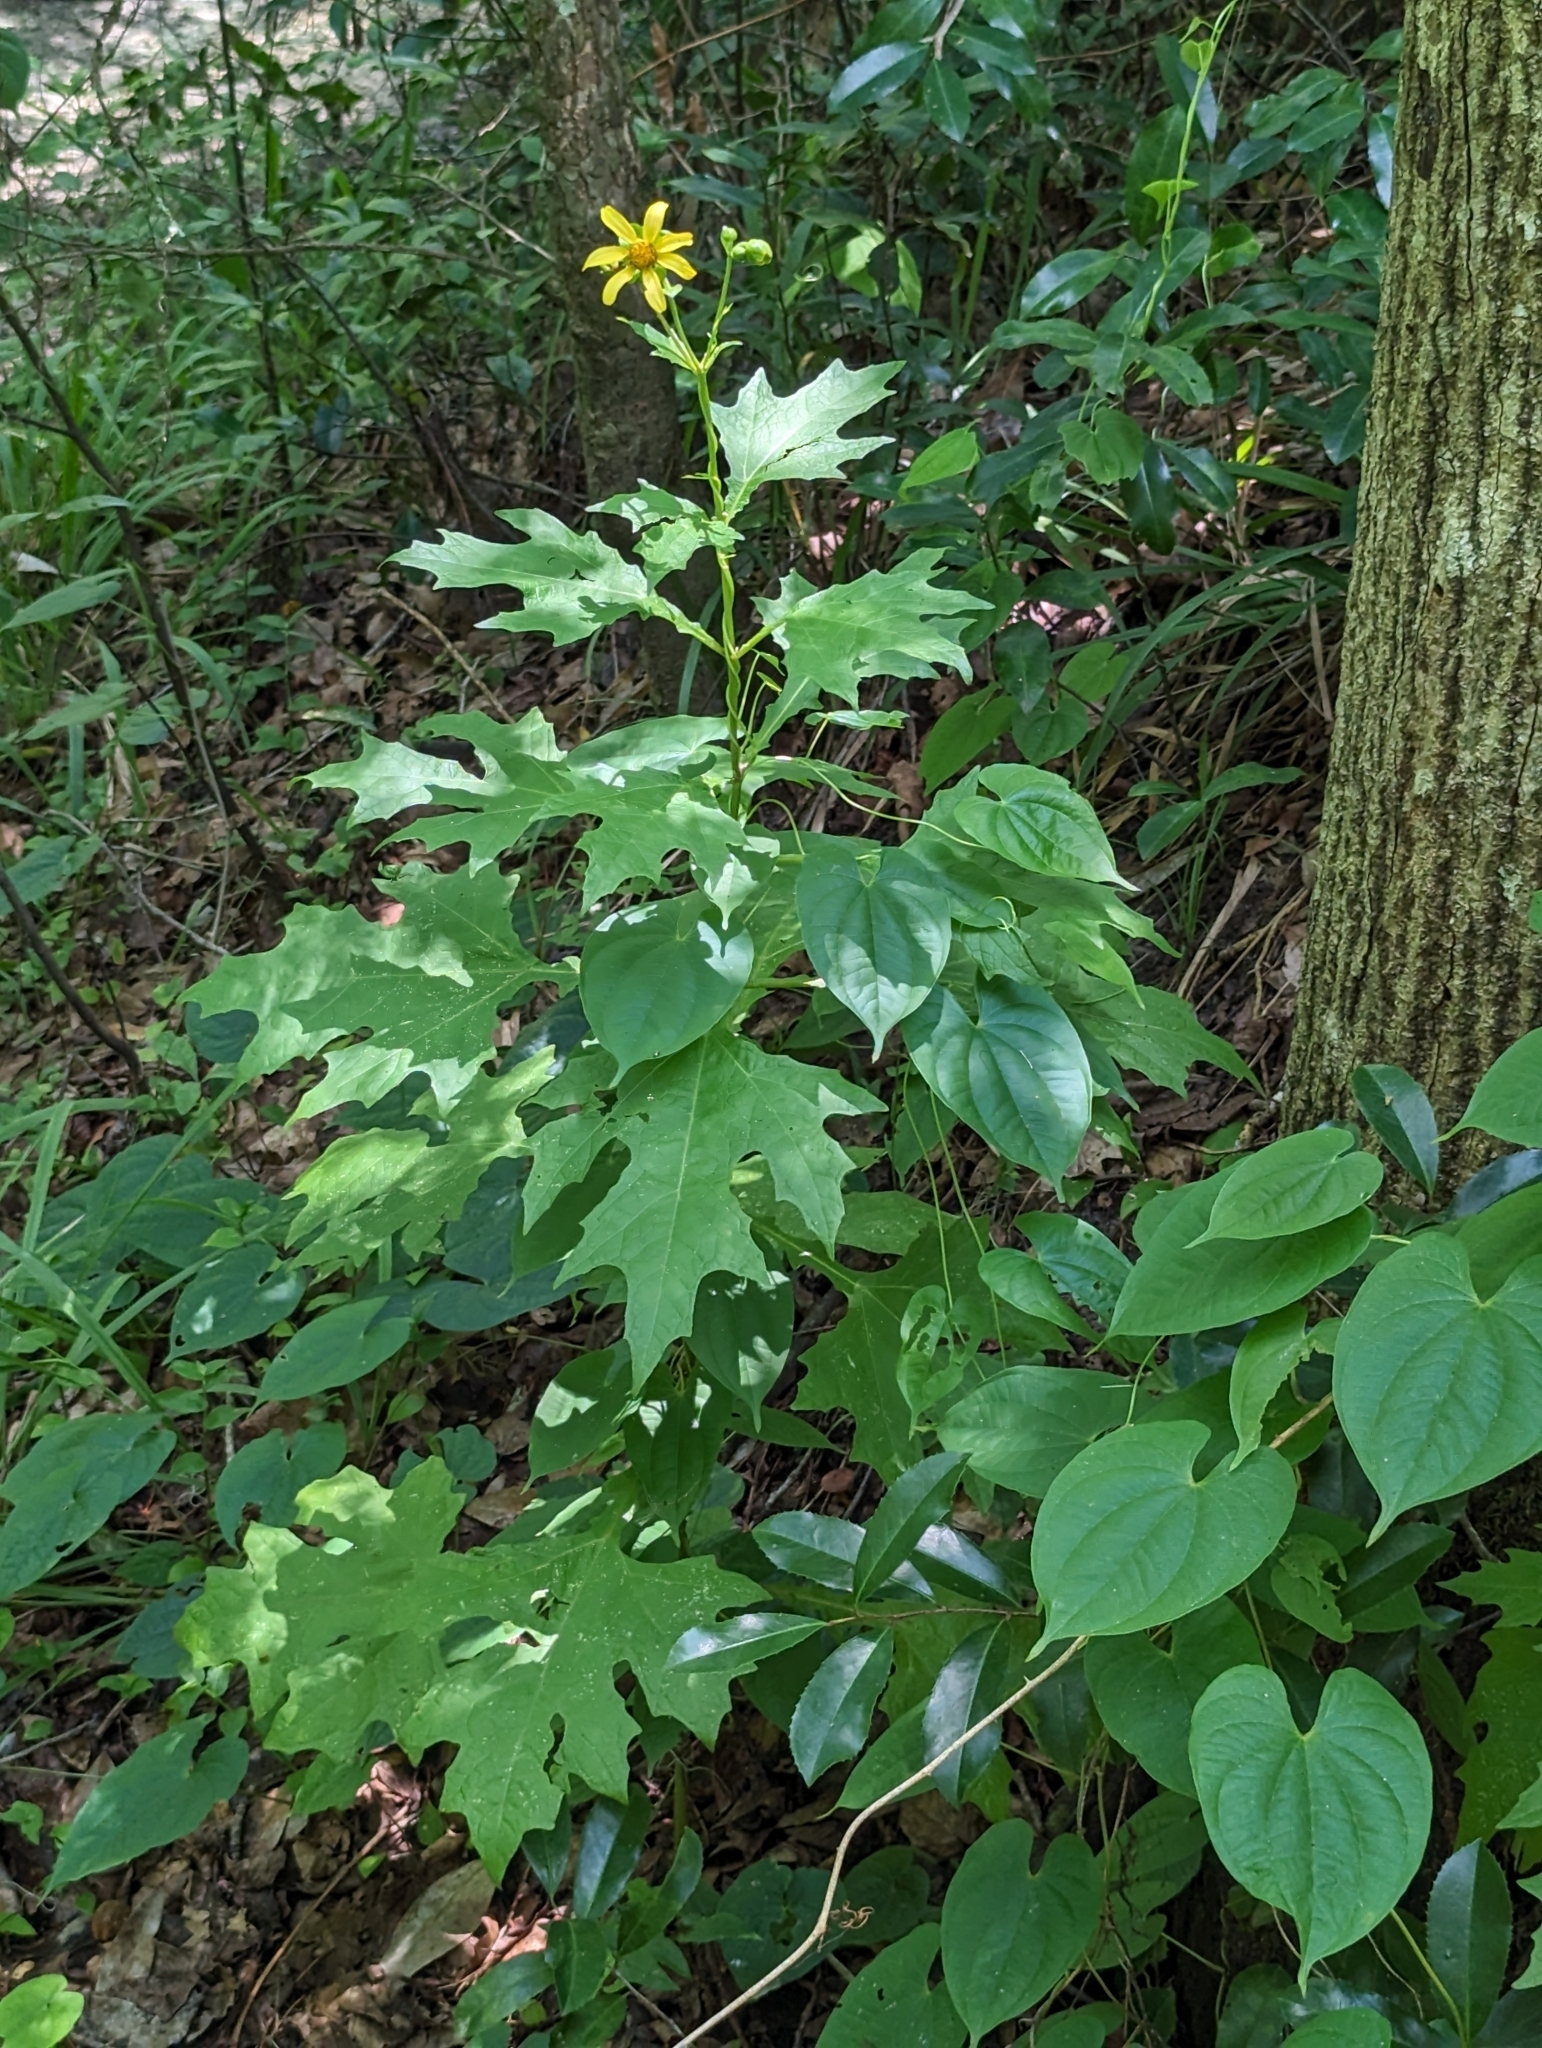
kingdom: Plantae
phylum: Tracheophyta
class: Magnoliopsida
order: Asterales
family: Asteraceae
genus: Smallanthus
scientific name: Smallanthus uvedalia
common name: Bear's-foot
